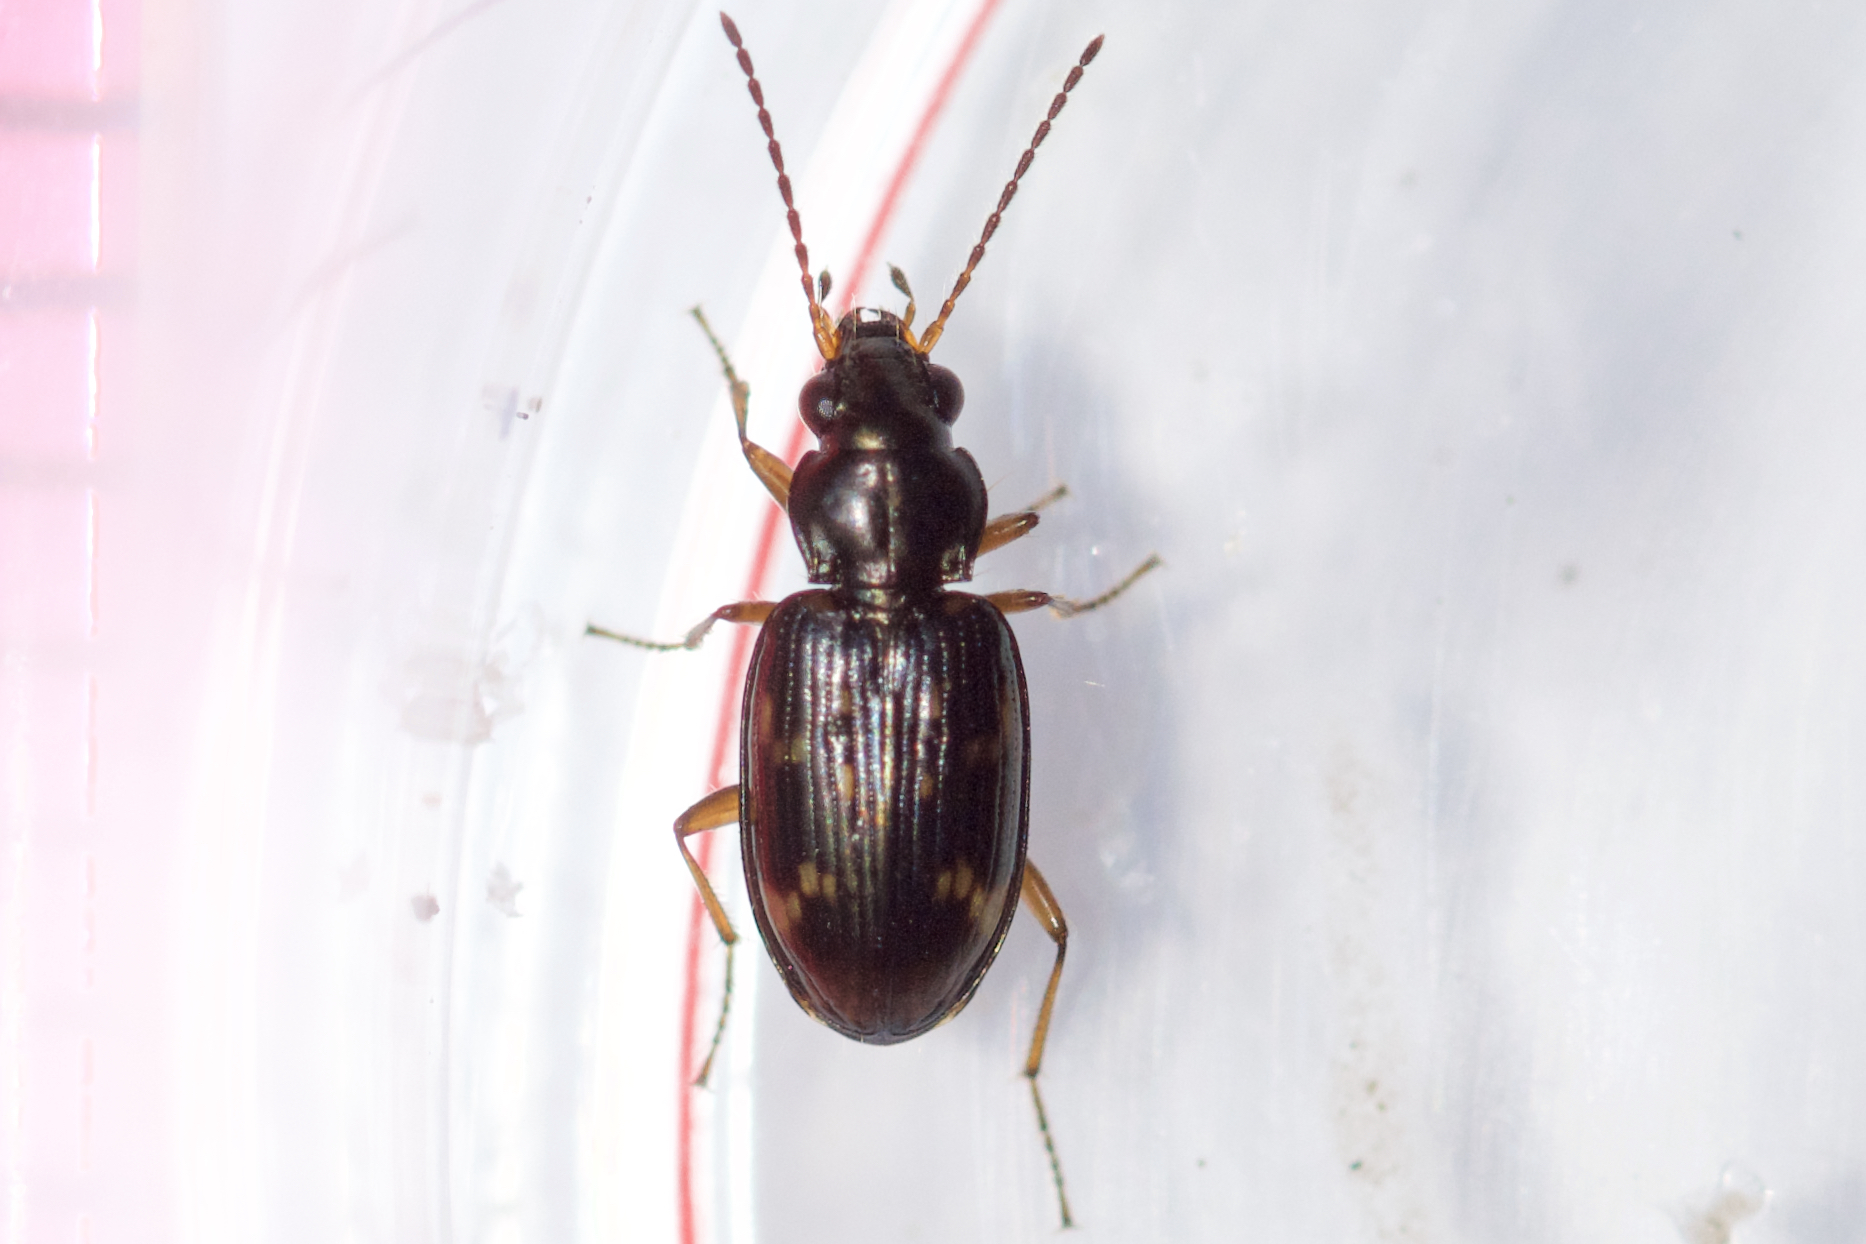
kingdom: Animalia
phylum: Arthropoda
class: Insecta
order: Coleoptera
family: Carabidae
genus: Bembidion
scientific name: Bembidion patruele
